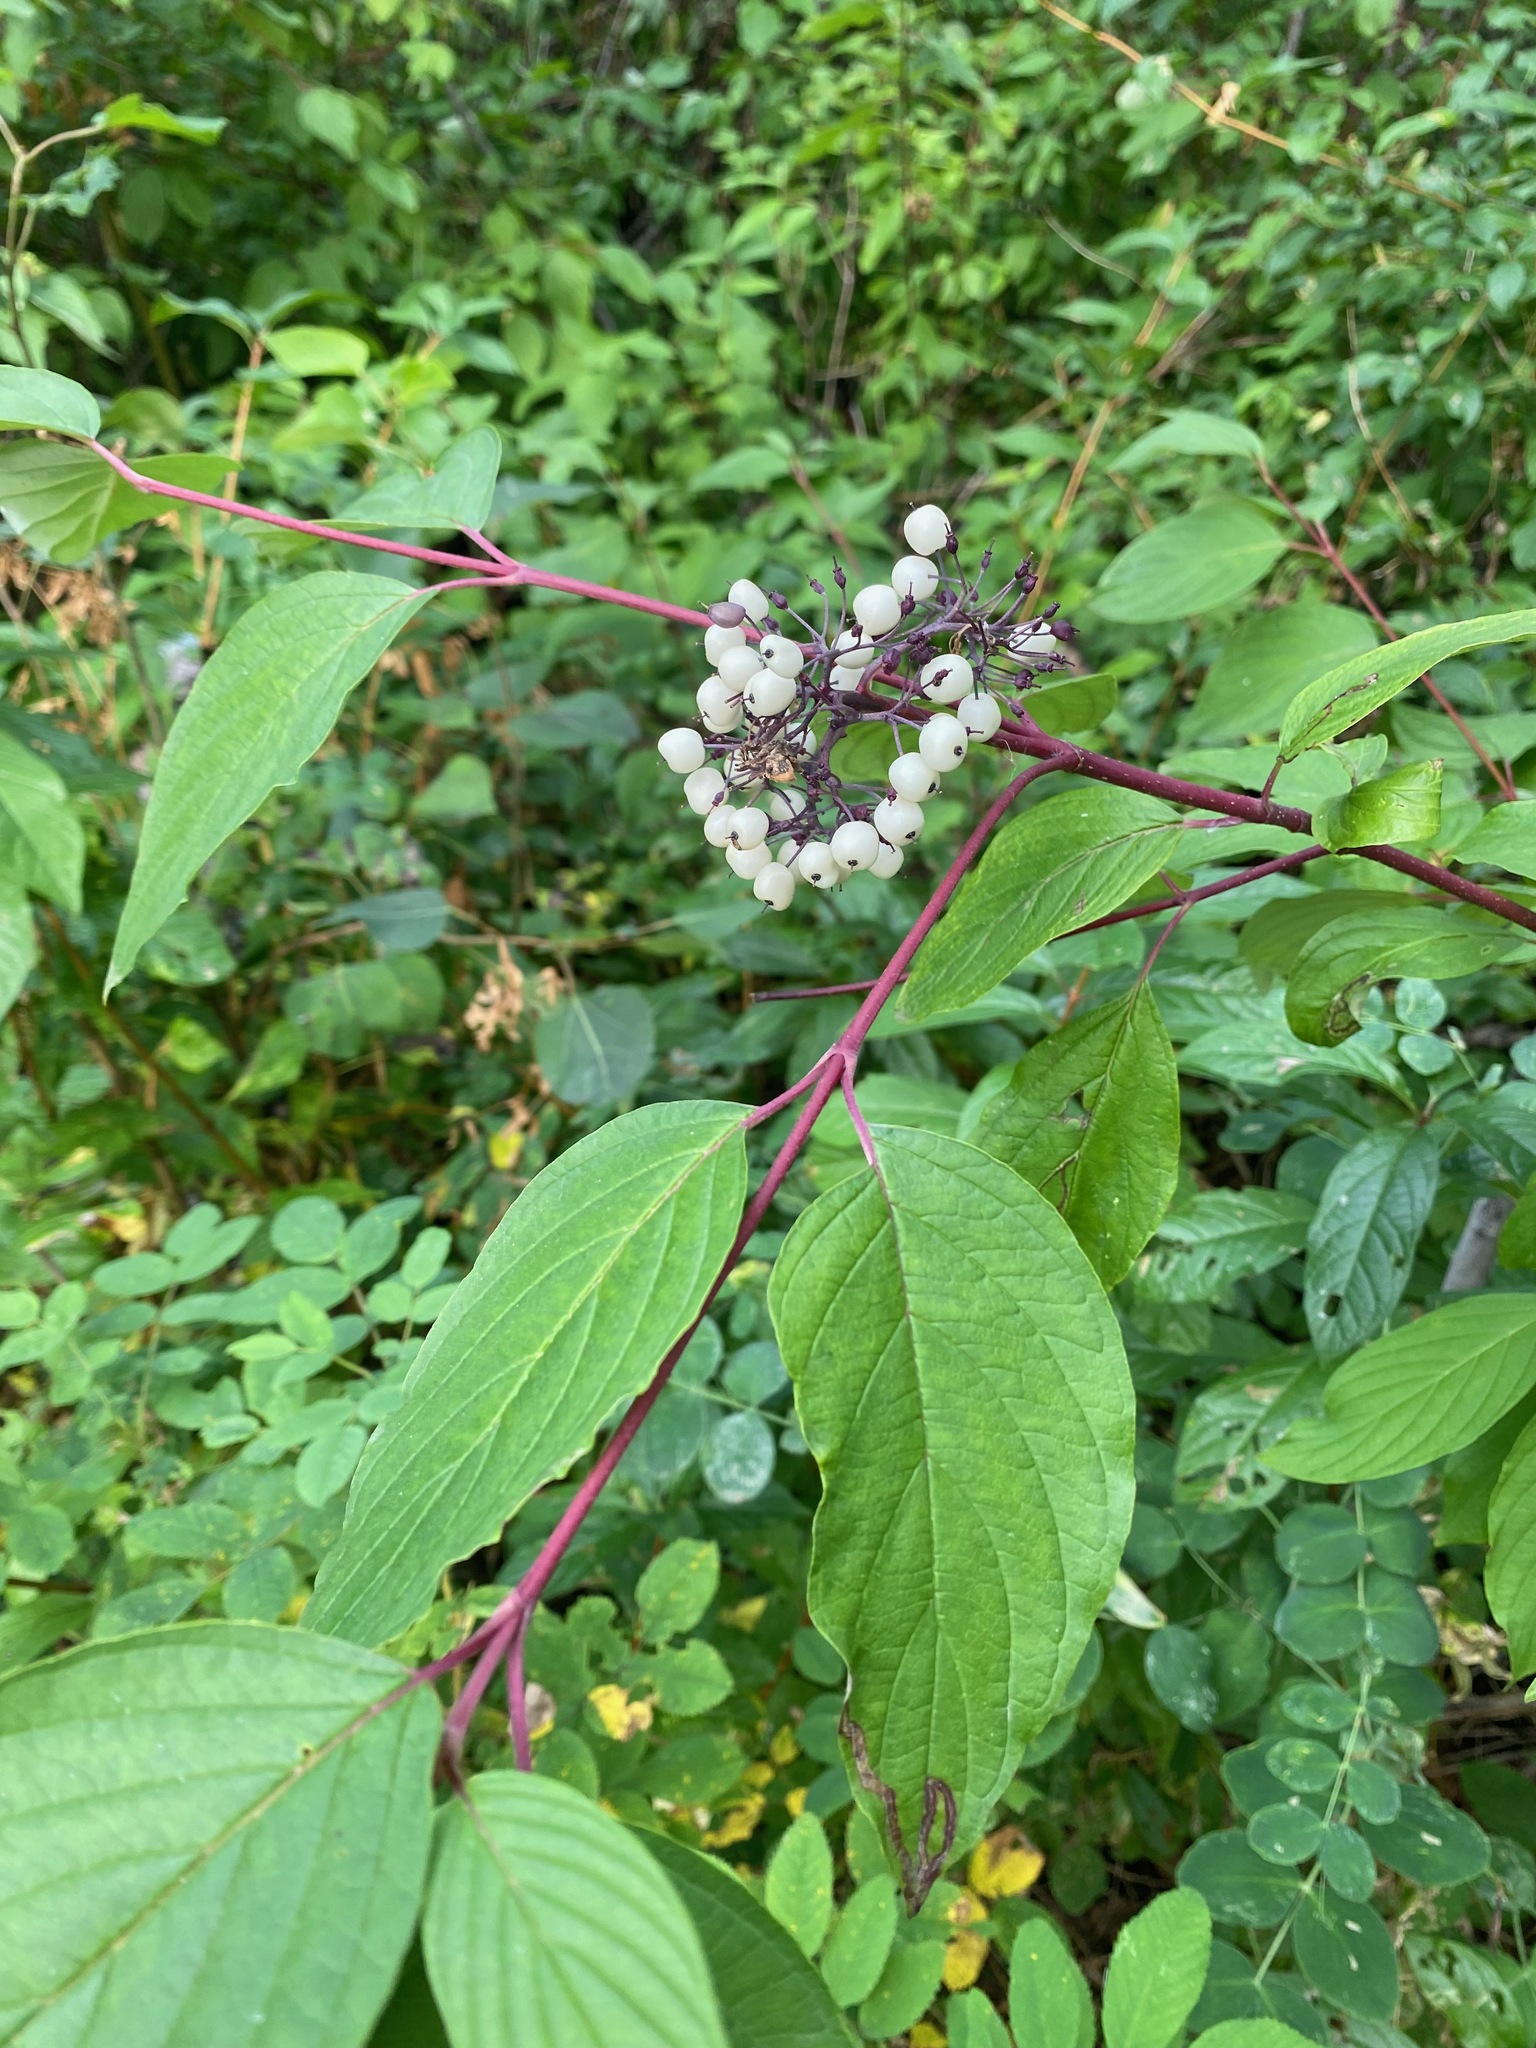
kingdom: Plantae
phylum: Tracheophyta
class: Magnoliopsida
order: Cornales
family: Cornaceae
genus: Cornus
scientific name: Cornus sericea
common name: Red-osier dogwood
